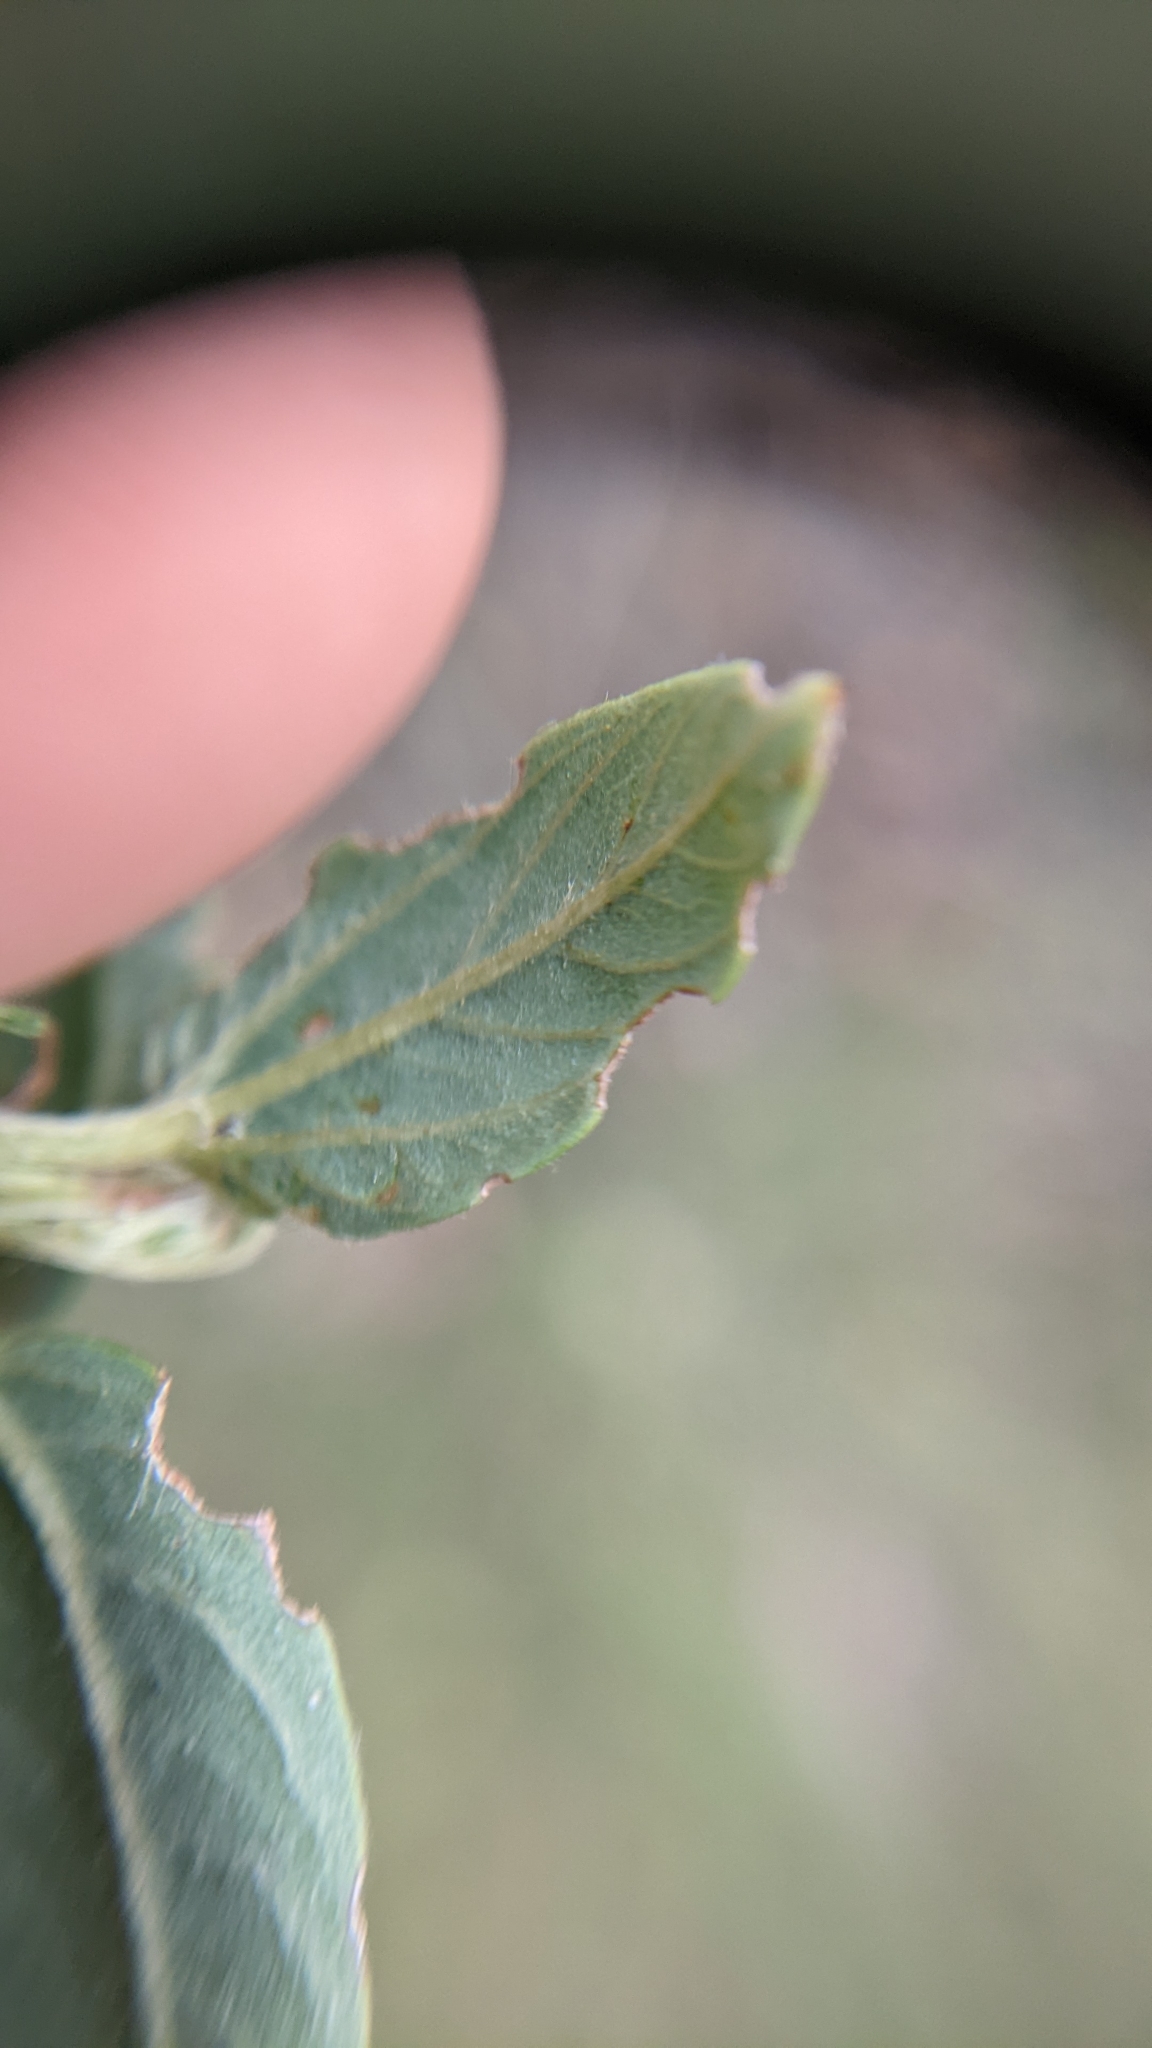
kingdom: Plantae
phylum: Tracheophyta
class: Magnoliopsida
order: Rosales
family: Rhamnaceae
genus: Ceanothus
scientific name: Ceanothus integerrimus
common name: Deerbrush ceanothus
